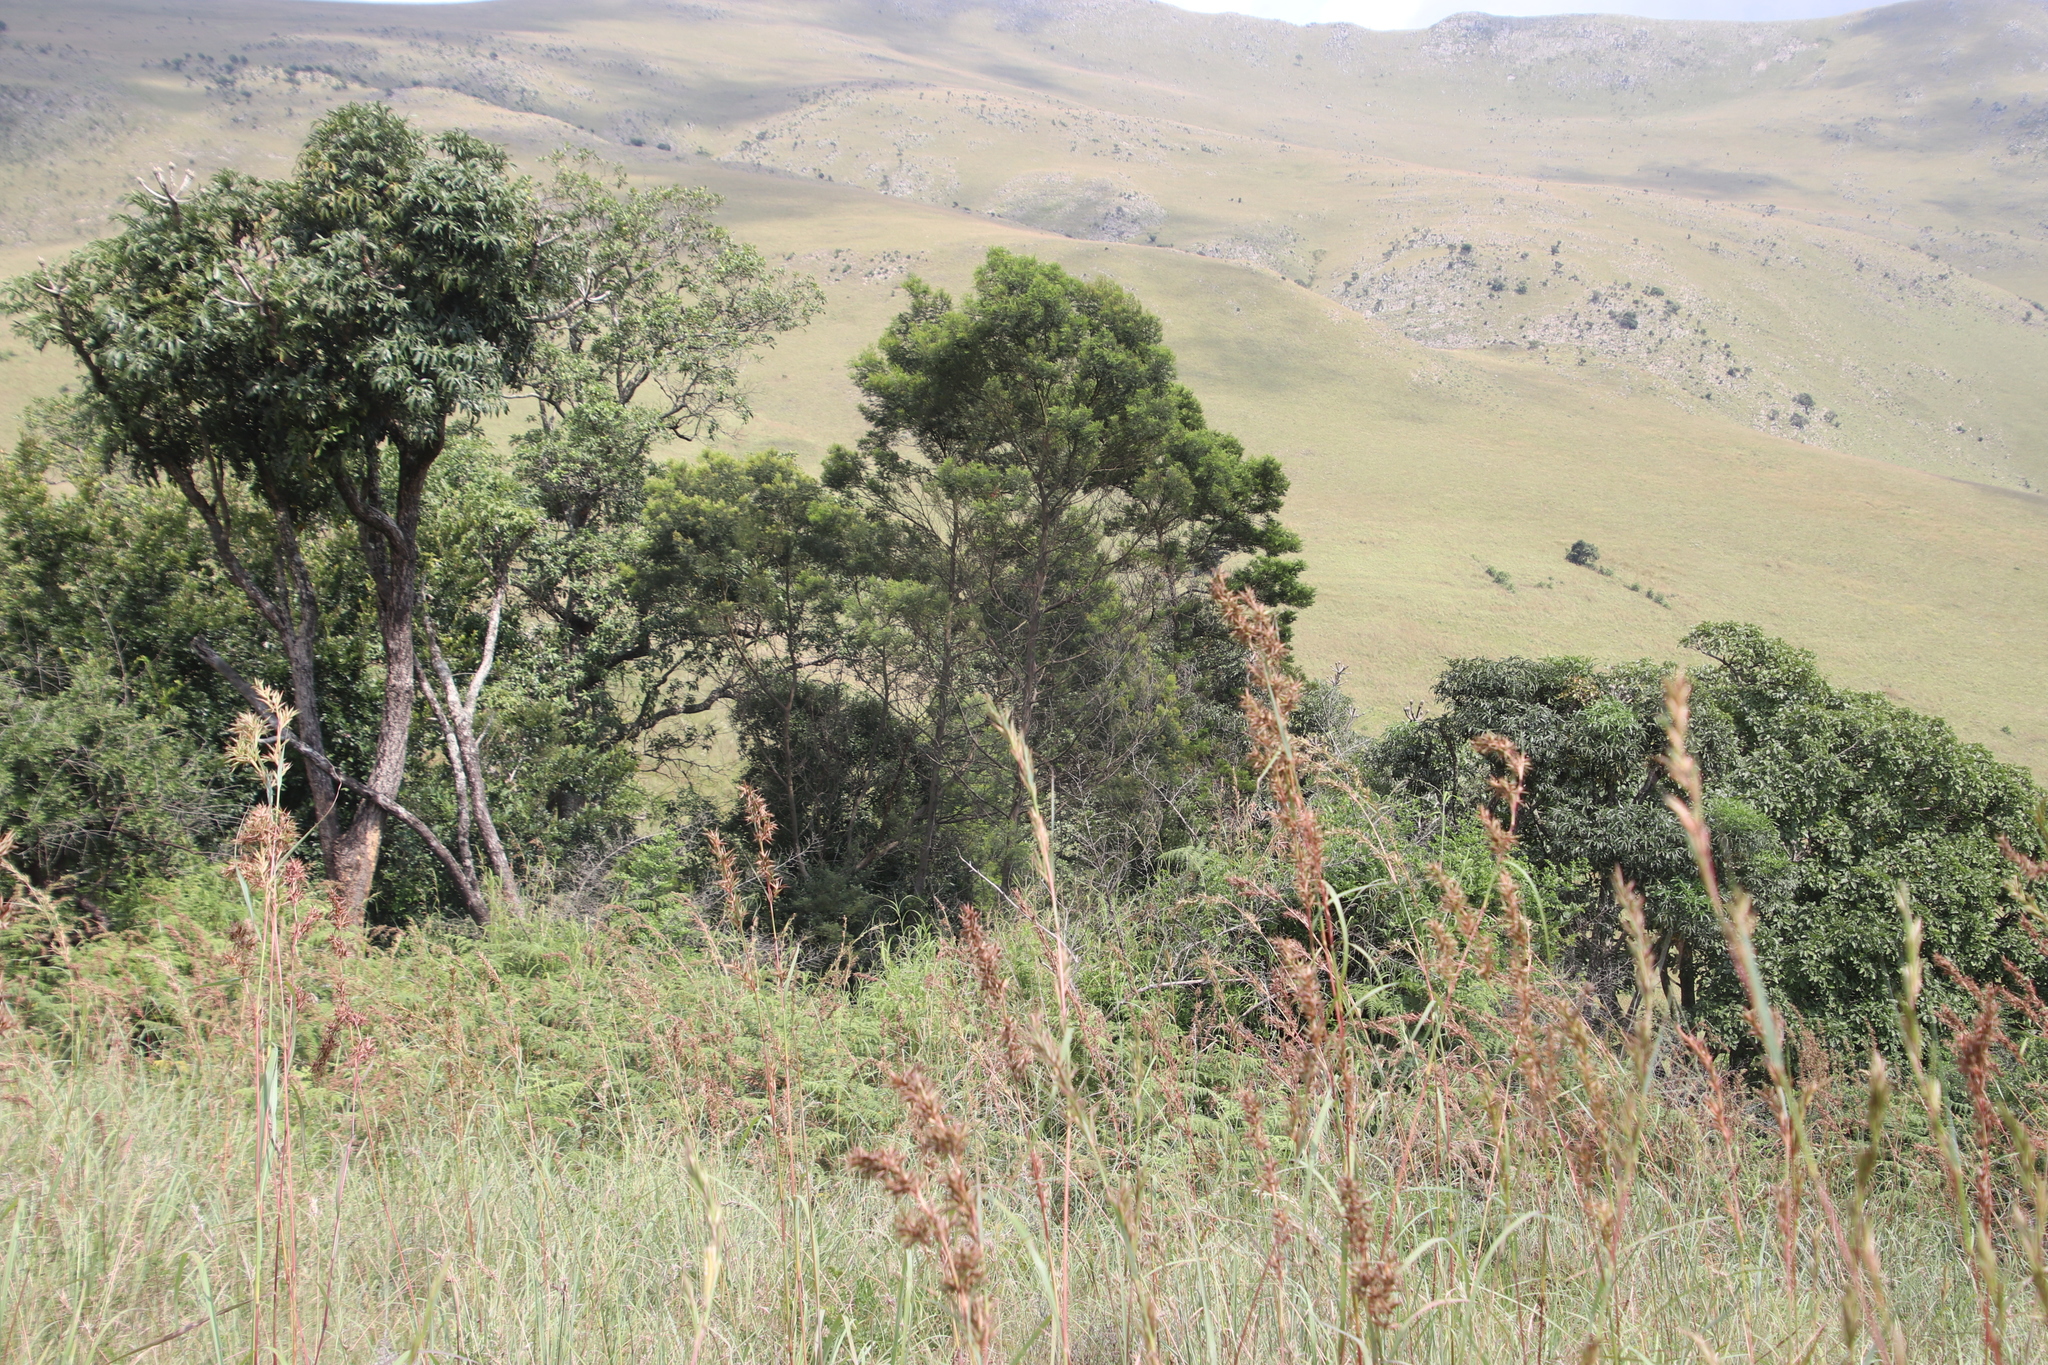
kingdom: Plantae
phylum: Tracheophyta
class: Magnoliopsida
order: Fabales
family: Fabaceae
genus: Acacia
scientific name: Acacia dealbata
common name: Silver wattle
